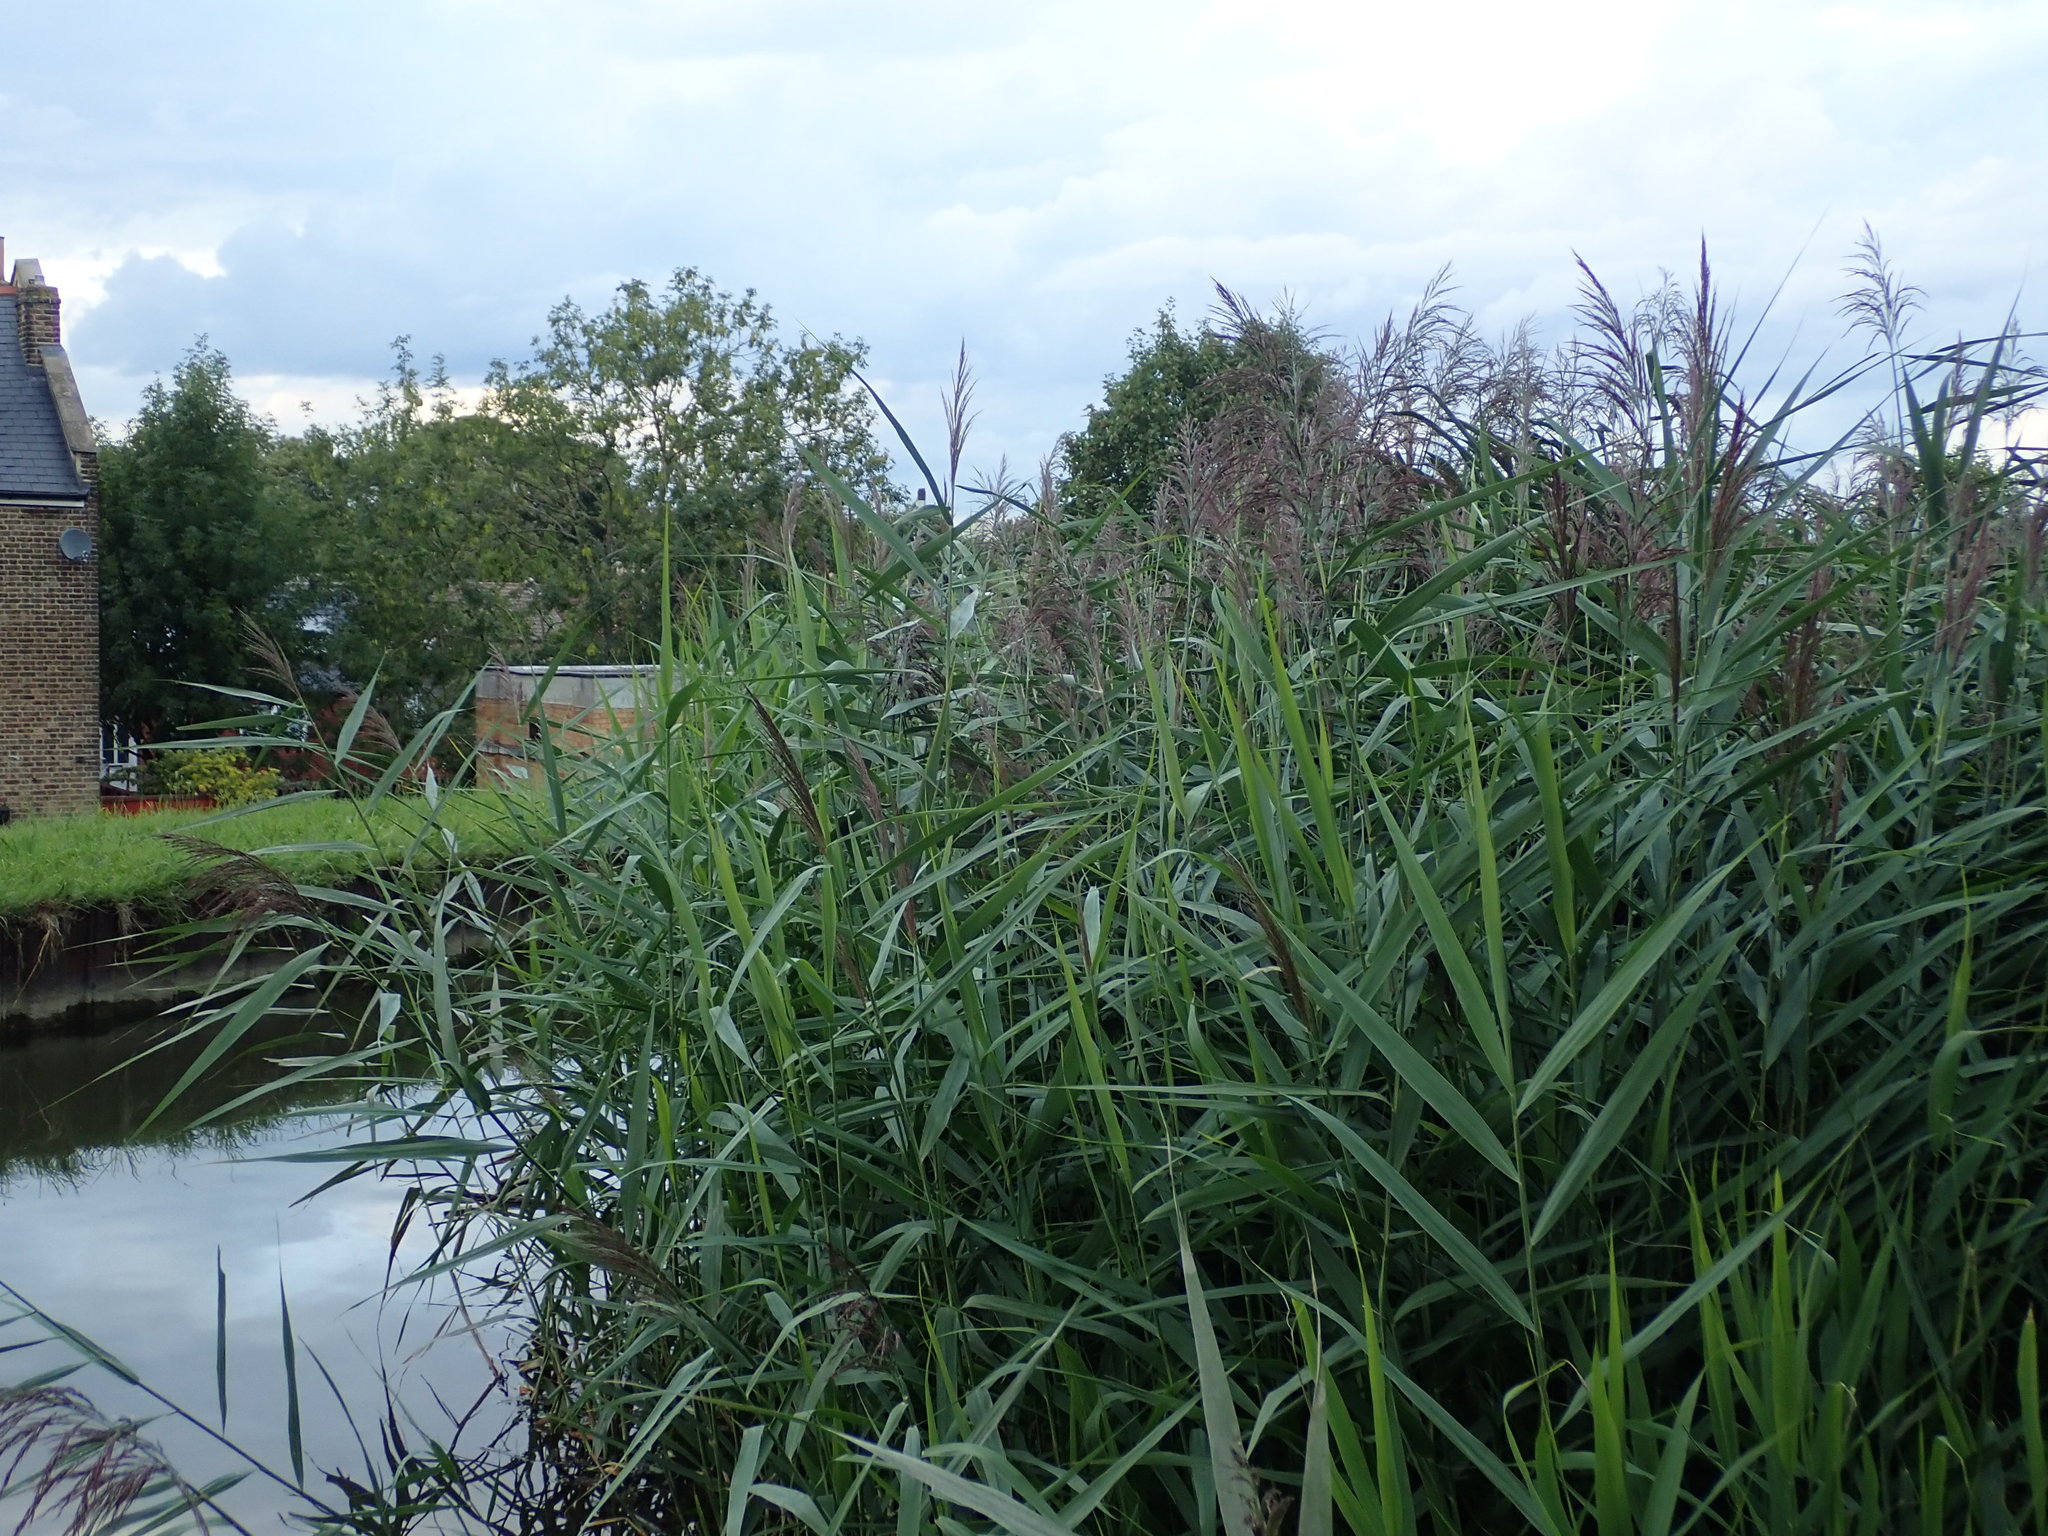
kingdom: Plantae
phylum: Tracheophyta
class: Liliopsida
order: Poales
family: Poaceae
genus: Phragmites
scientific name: Phragmites australis
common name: Common reed
